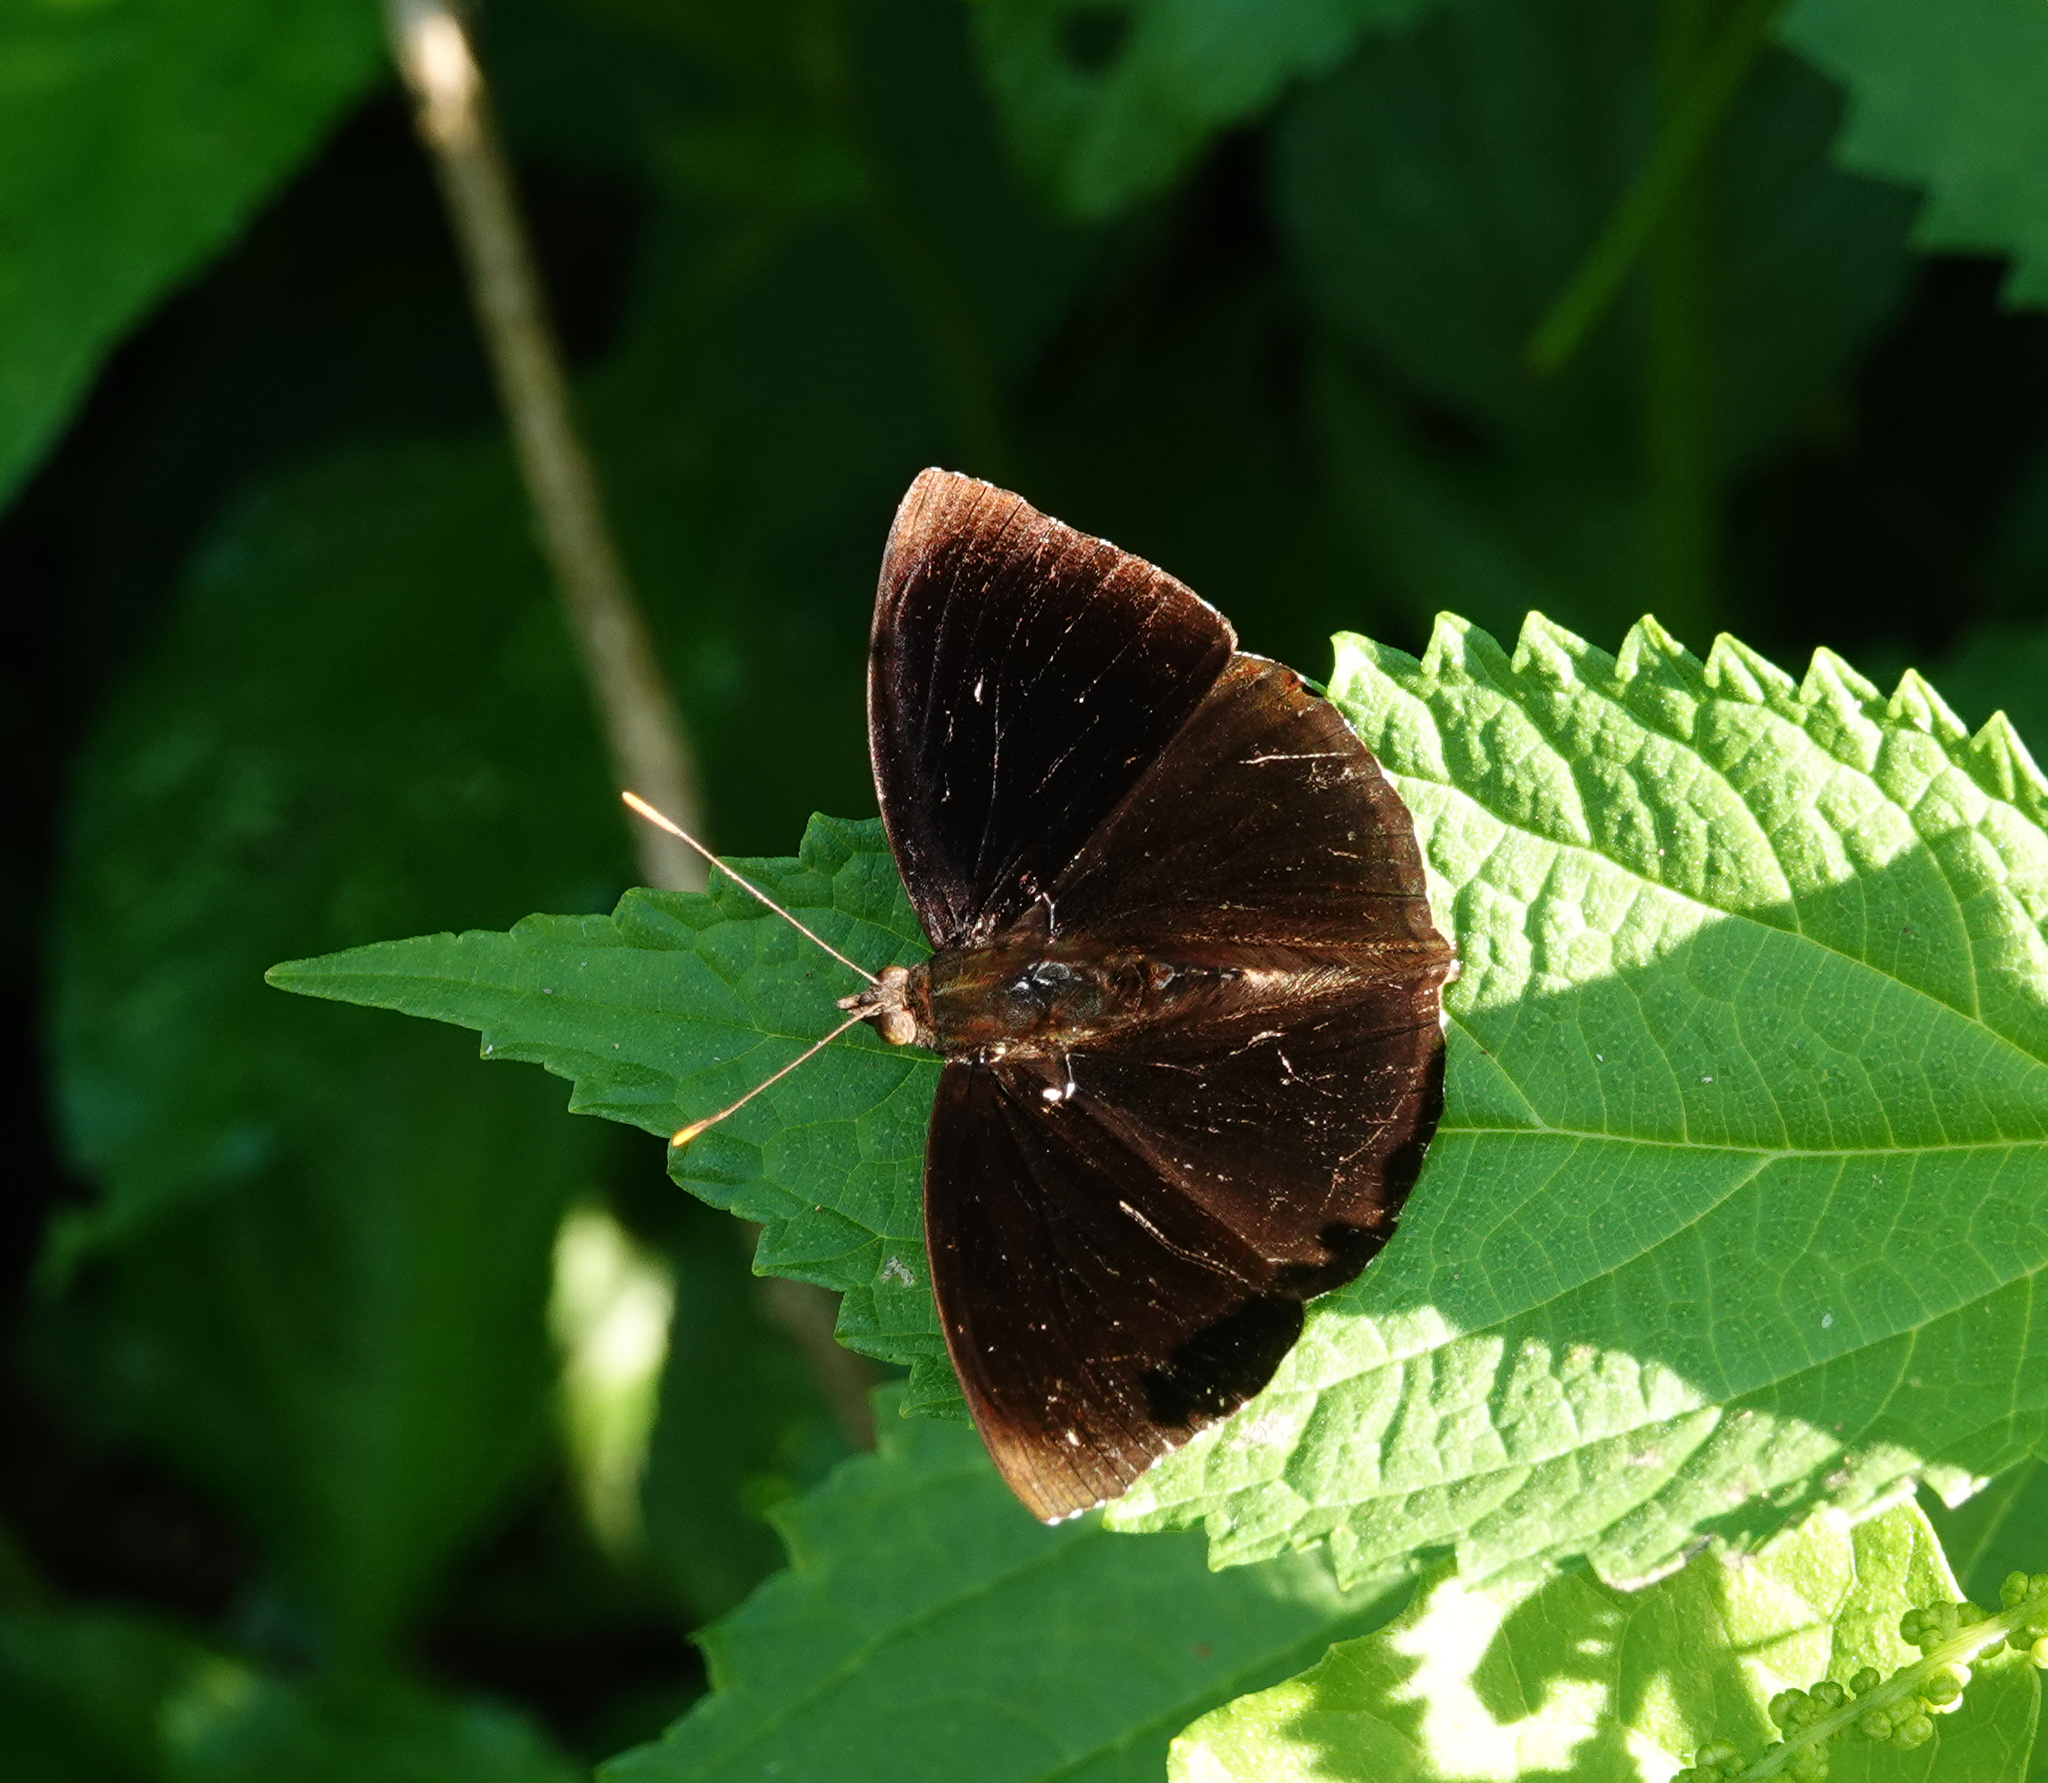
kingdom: Animalia
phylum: Arthropoda
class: Insecta
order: Lepidoptera
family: Nymphalidae
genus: Apatura
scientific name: Apatura Rohana spec
